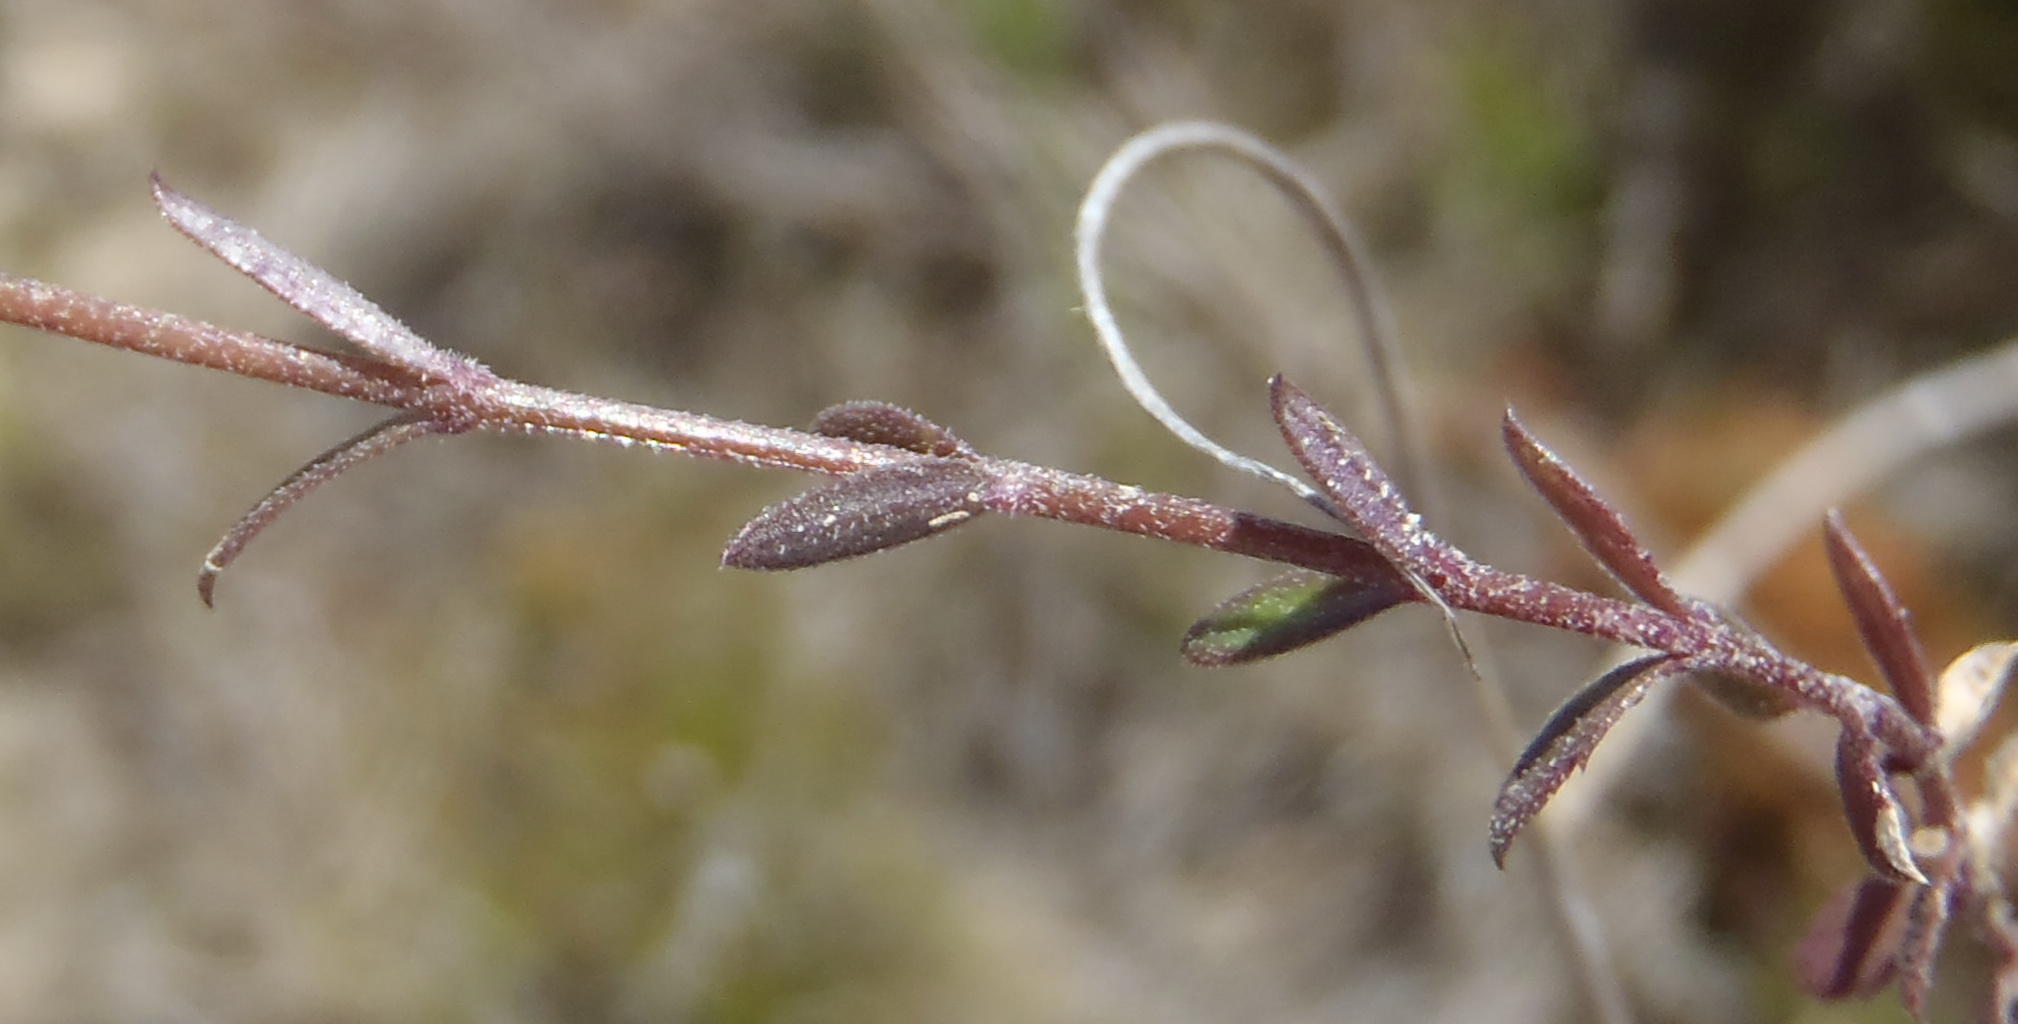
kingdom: Plantae
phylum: Tracheophyta
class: Magnoliopsida
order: Asterales
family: Campanulaceae
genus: Monopsis
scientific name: Monopsis unidentata
